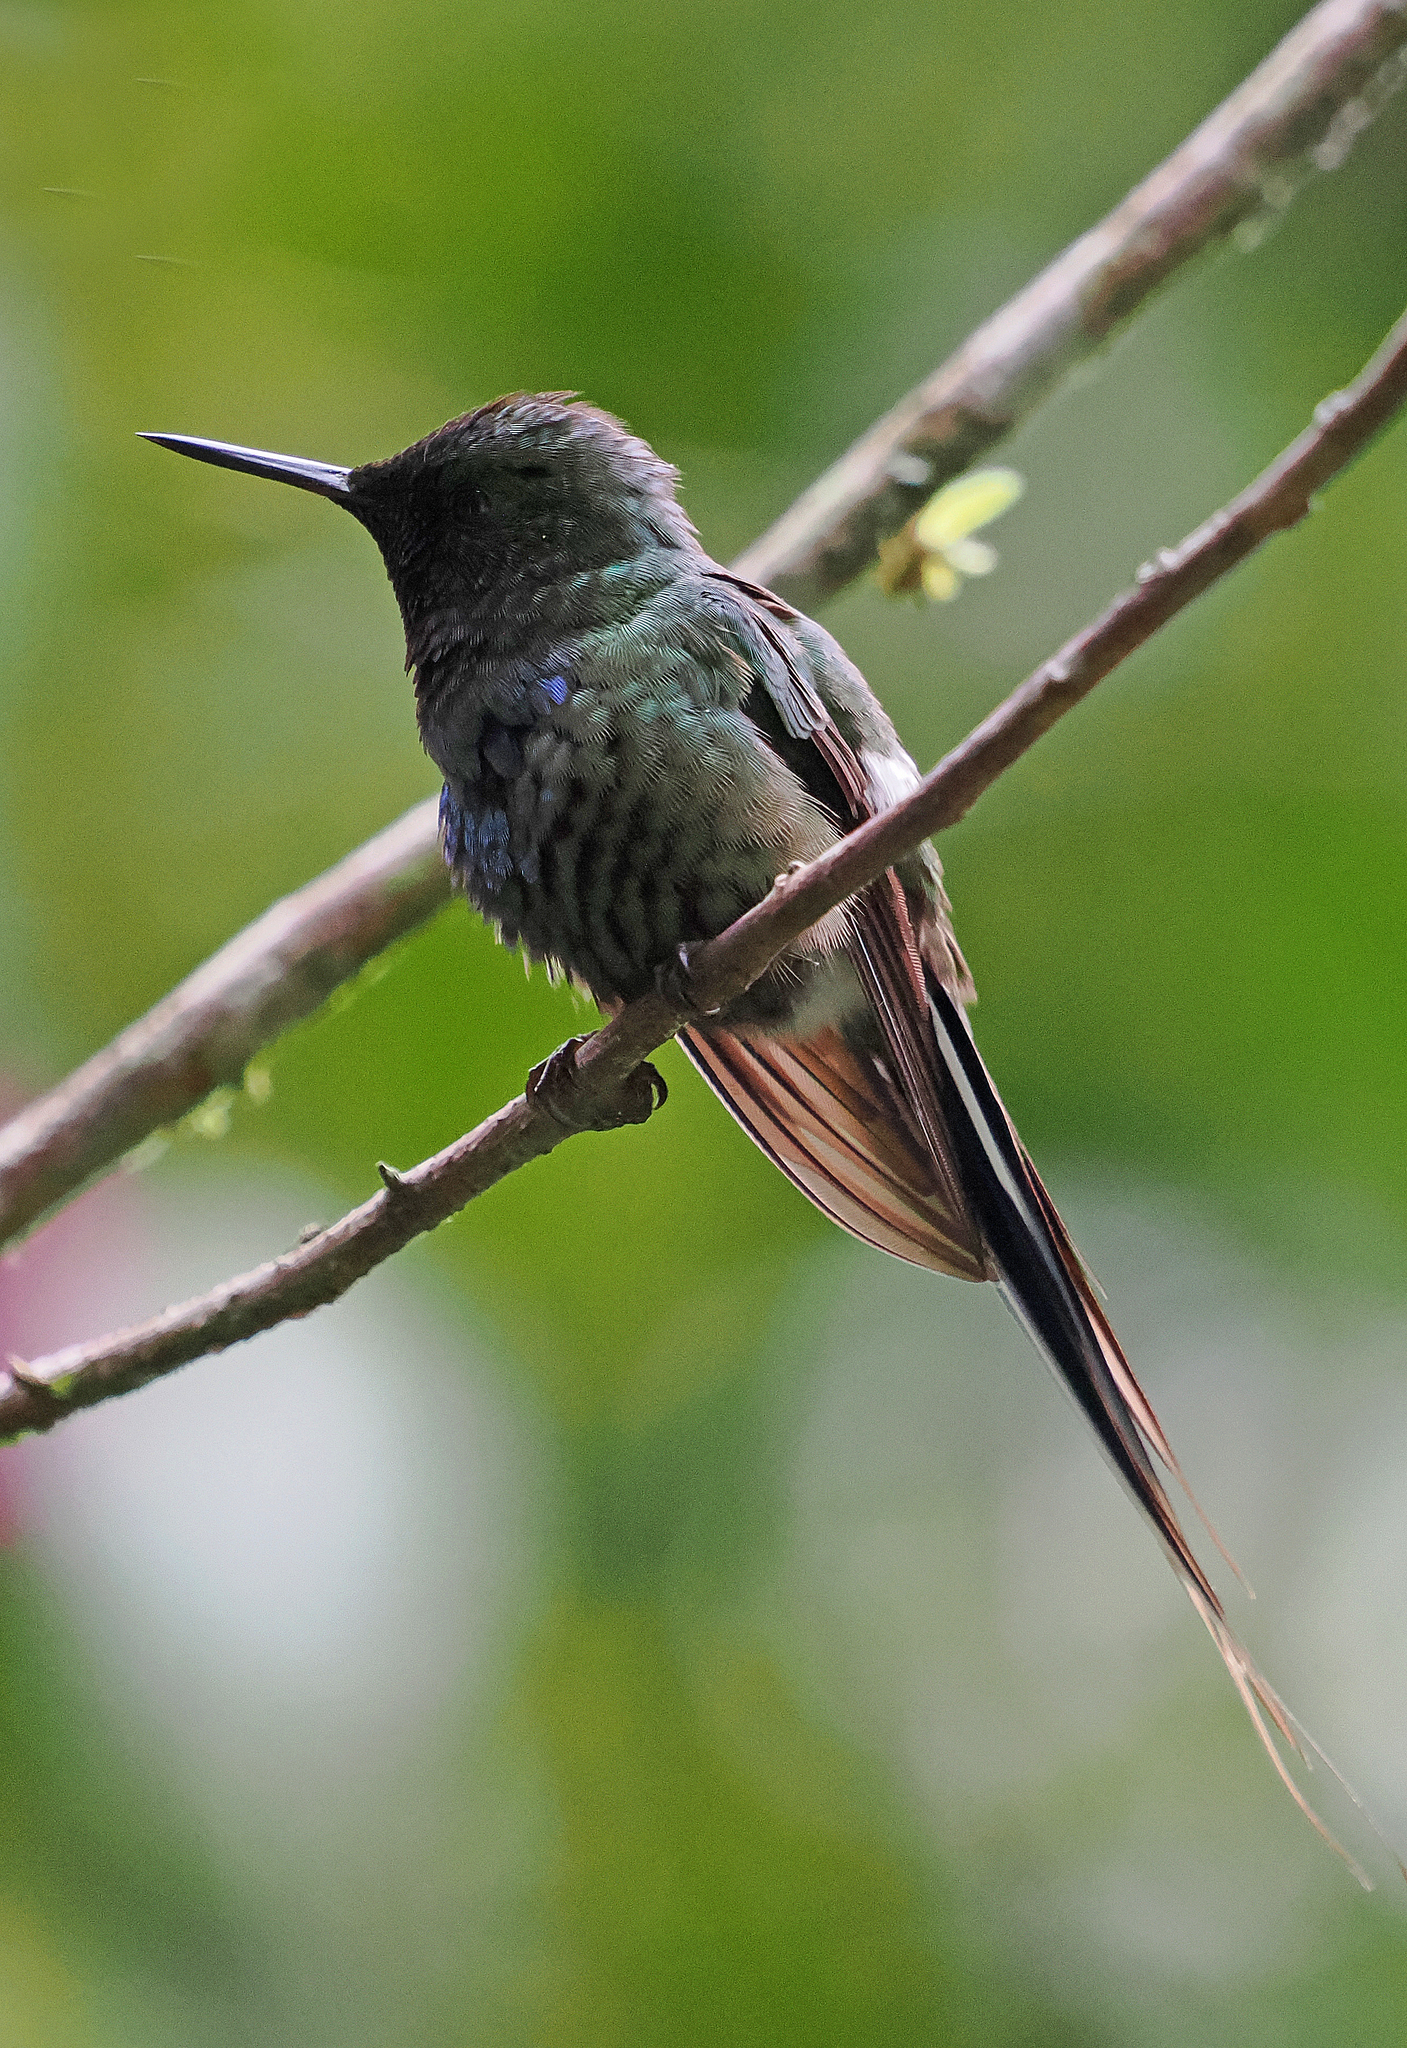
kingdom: Animalia
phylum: Chordata
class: Aves
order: Apodiformes
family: Trochilidae
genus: Discosura
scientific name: Discosura conversii
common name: Green thorntail
